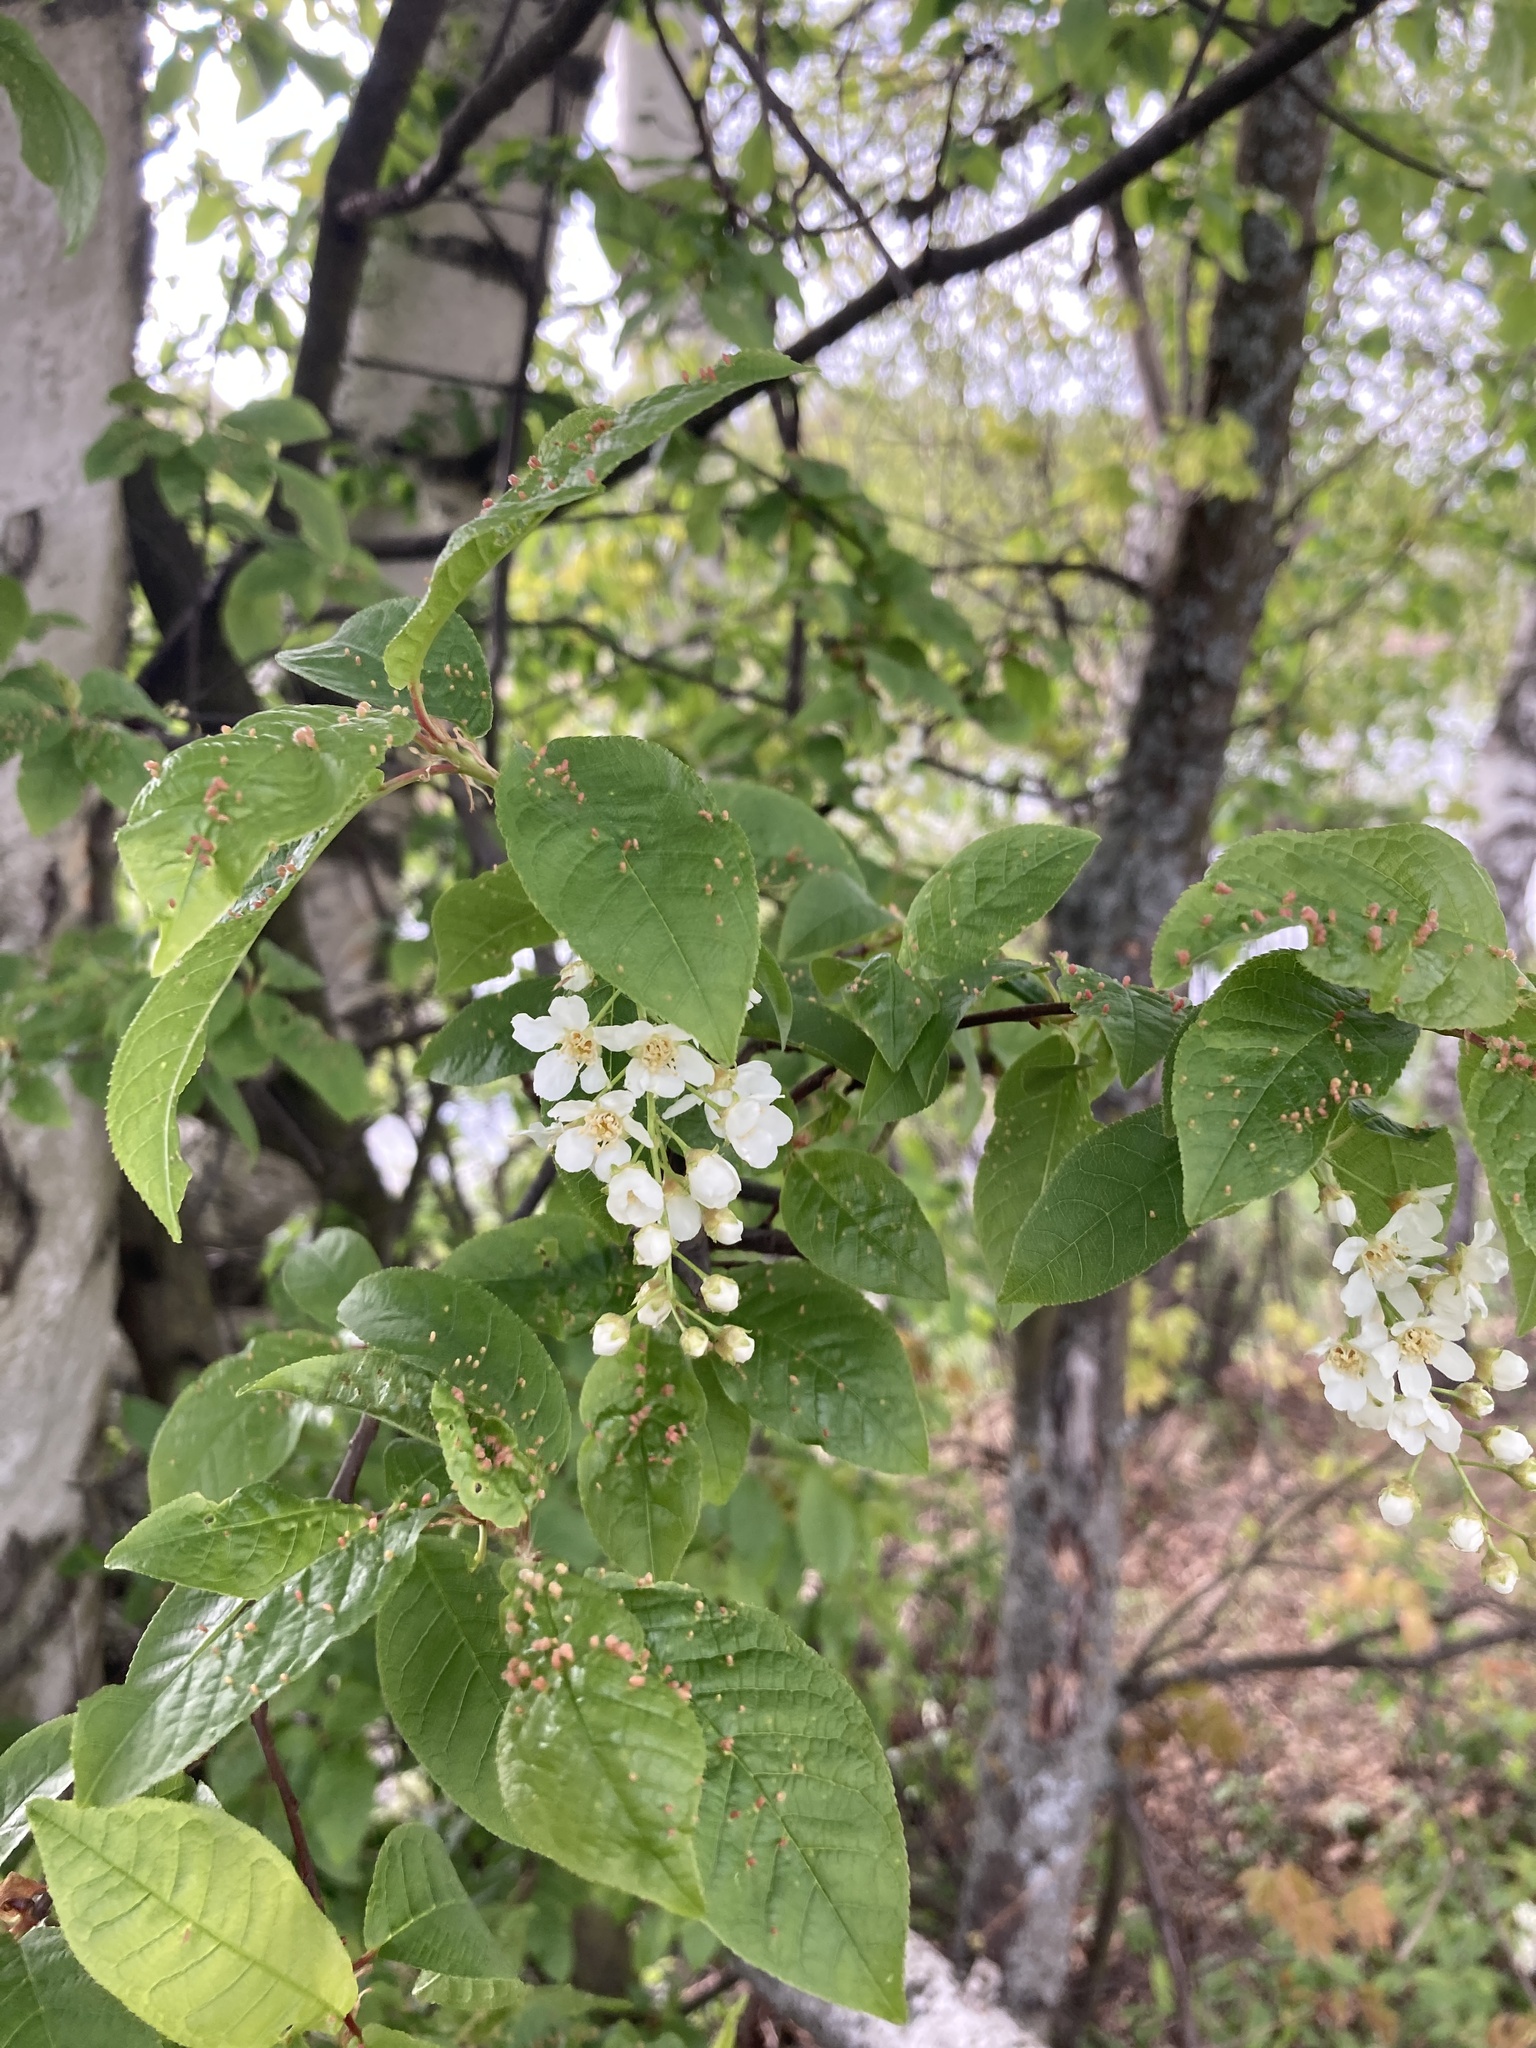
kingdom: Plantae
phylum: Tracheophyta
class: Magnoliopsida
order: Rosales
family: Rosaceae
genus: Prunus
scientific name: Prunus padus
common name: Bird cherry
